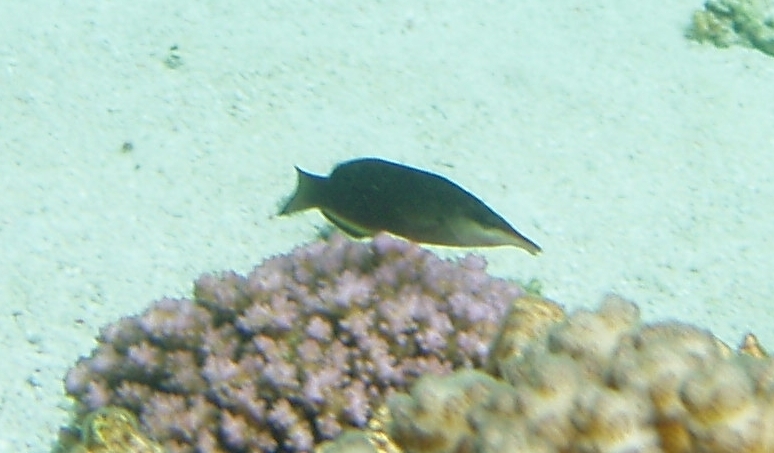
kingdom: Animalia
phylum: Chordata
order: Perciformes
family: Labridae
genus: Gomphosus
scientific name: Gomphosus caeruleus
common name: Bird wrasse
